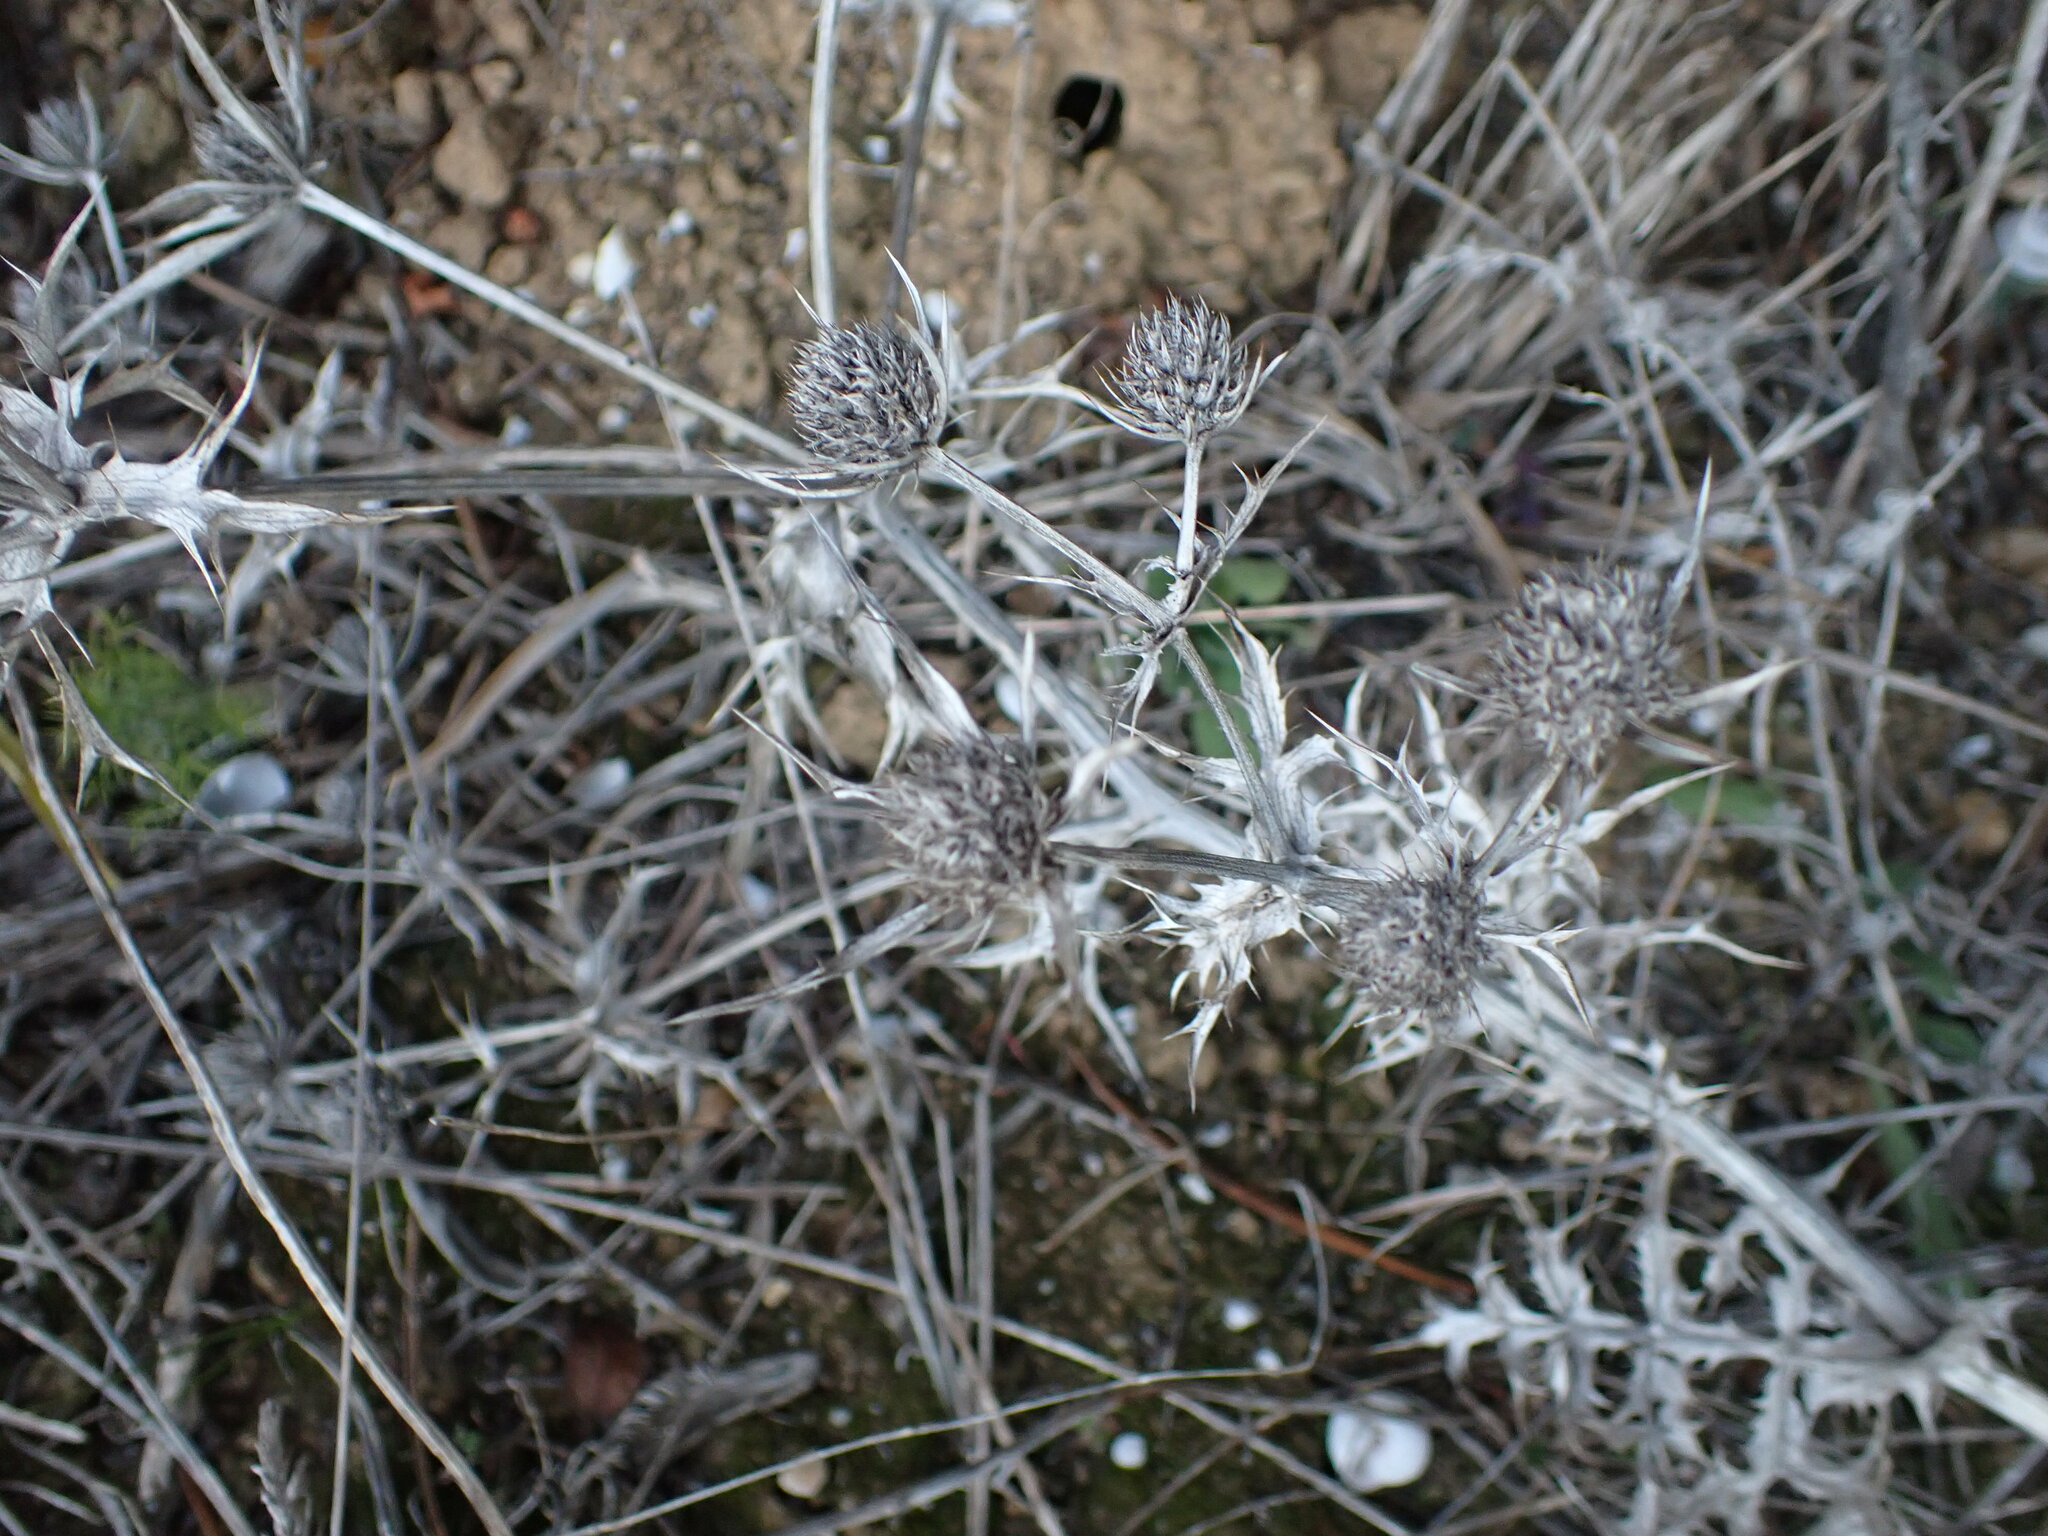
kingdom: Plantae
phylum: Tracheophyta
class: Magnoliopsida
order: Apiales
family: Apiaceae
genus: Eryngium
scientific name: Eryngium campestre
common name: Field eryngo
